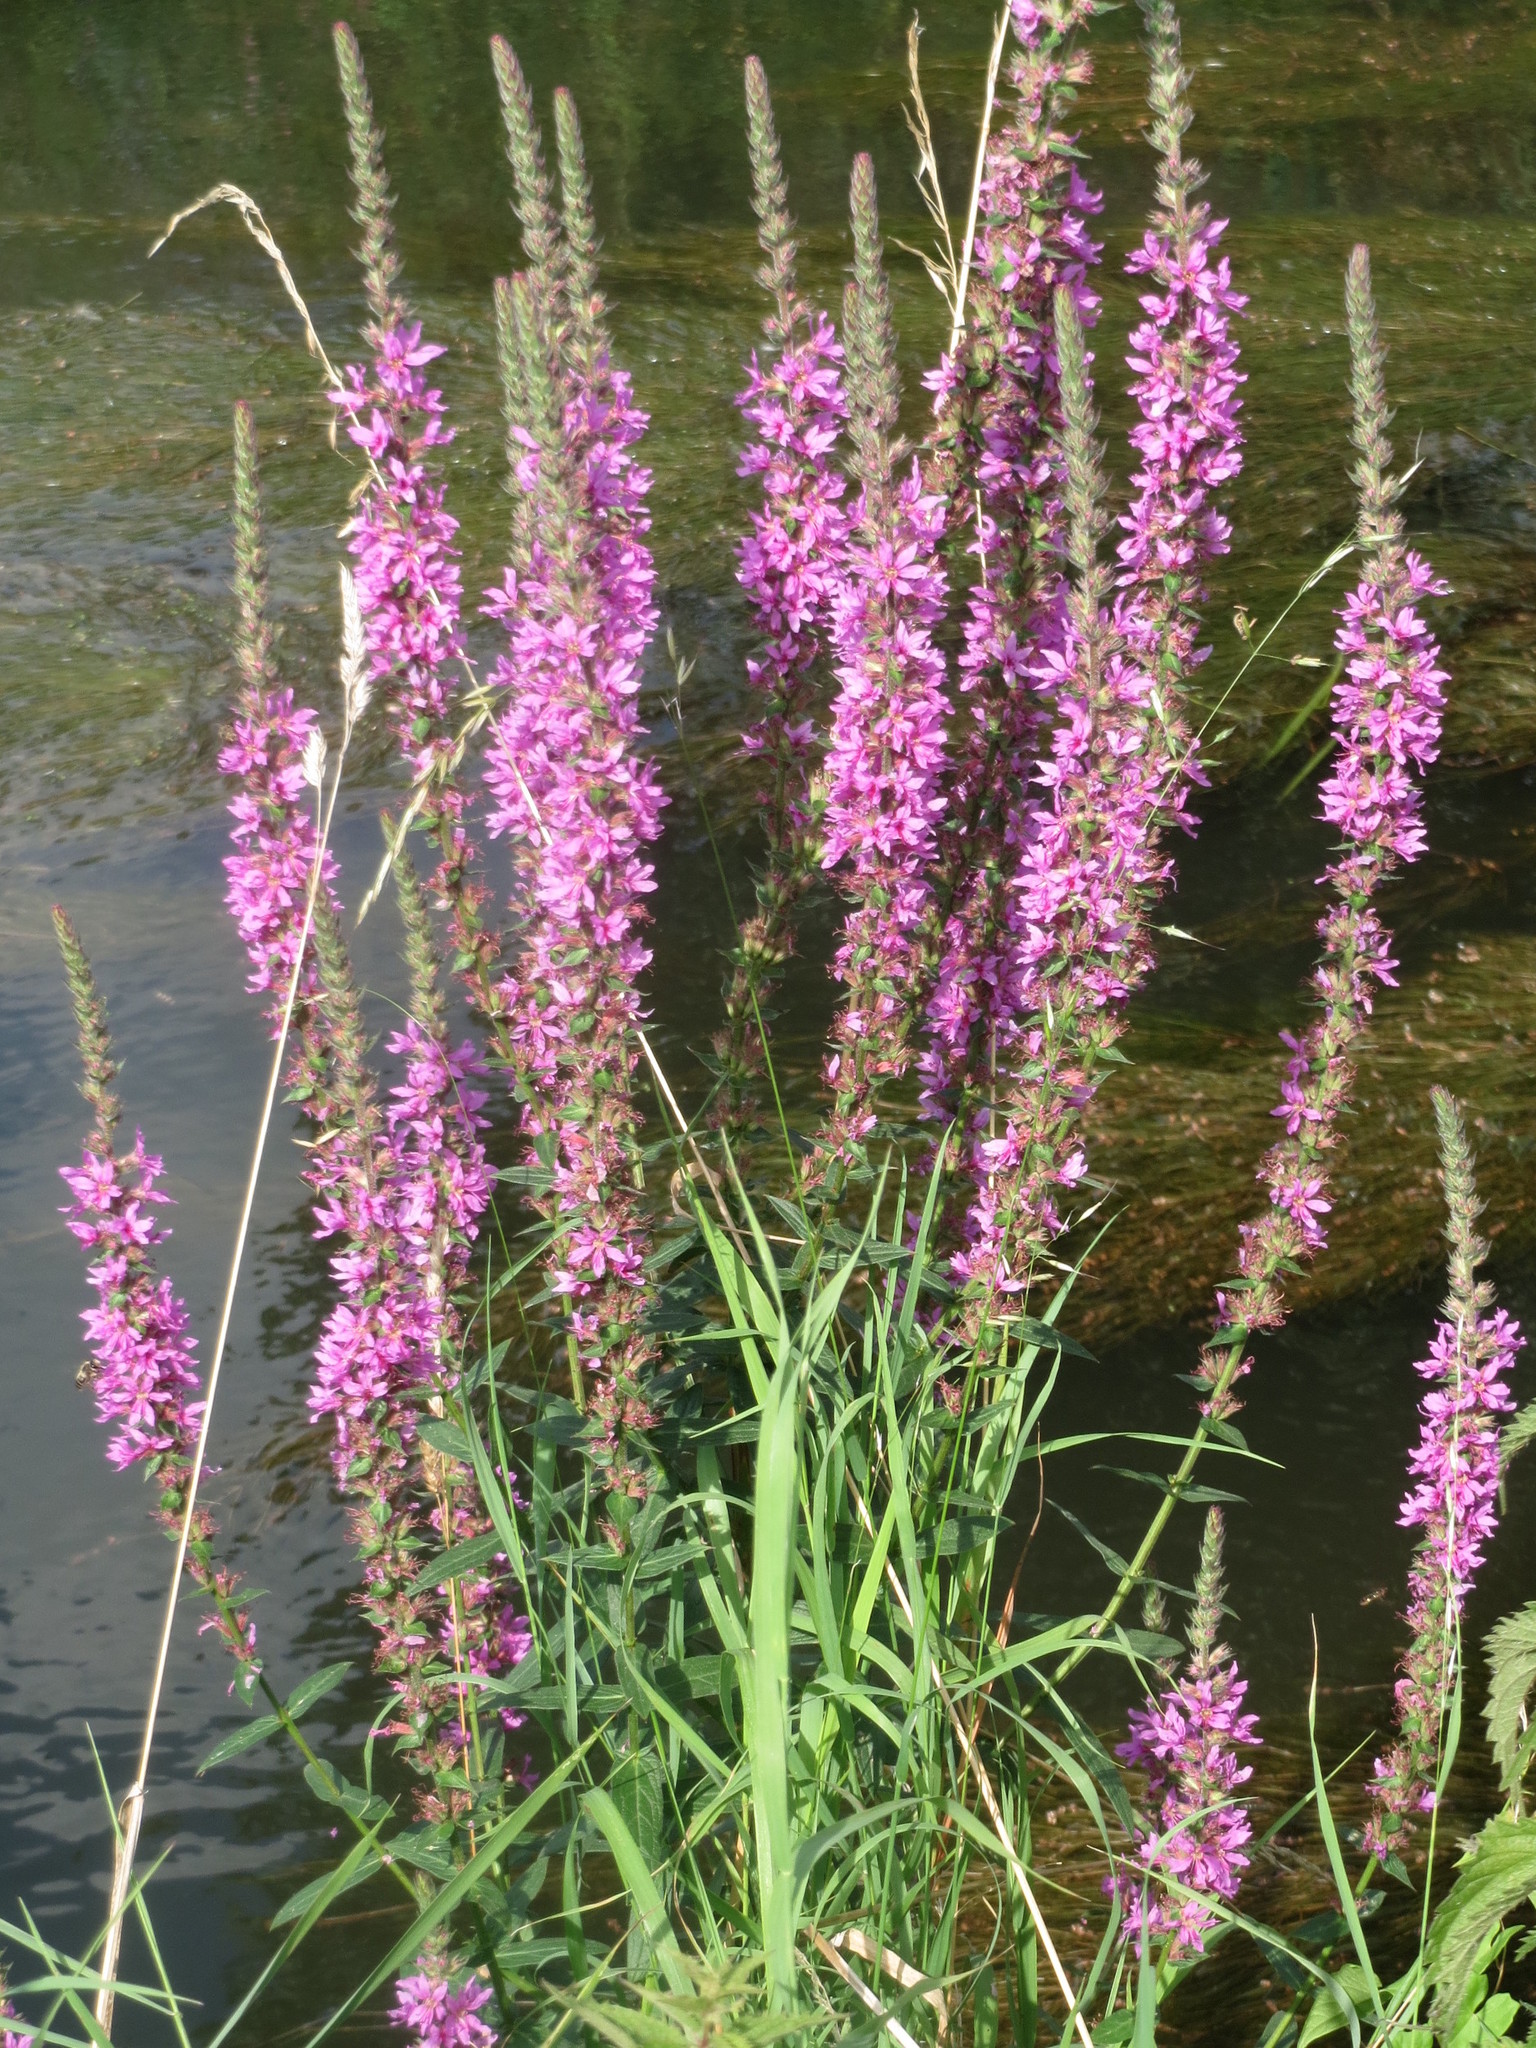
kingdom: Plantae
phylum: Tracheophyta
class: Magnoliopsida
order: Myrtales
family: Lythraceae
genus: Lythrum
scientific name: Lythrum salicaria
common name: Purple loosestrife
